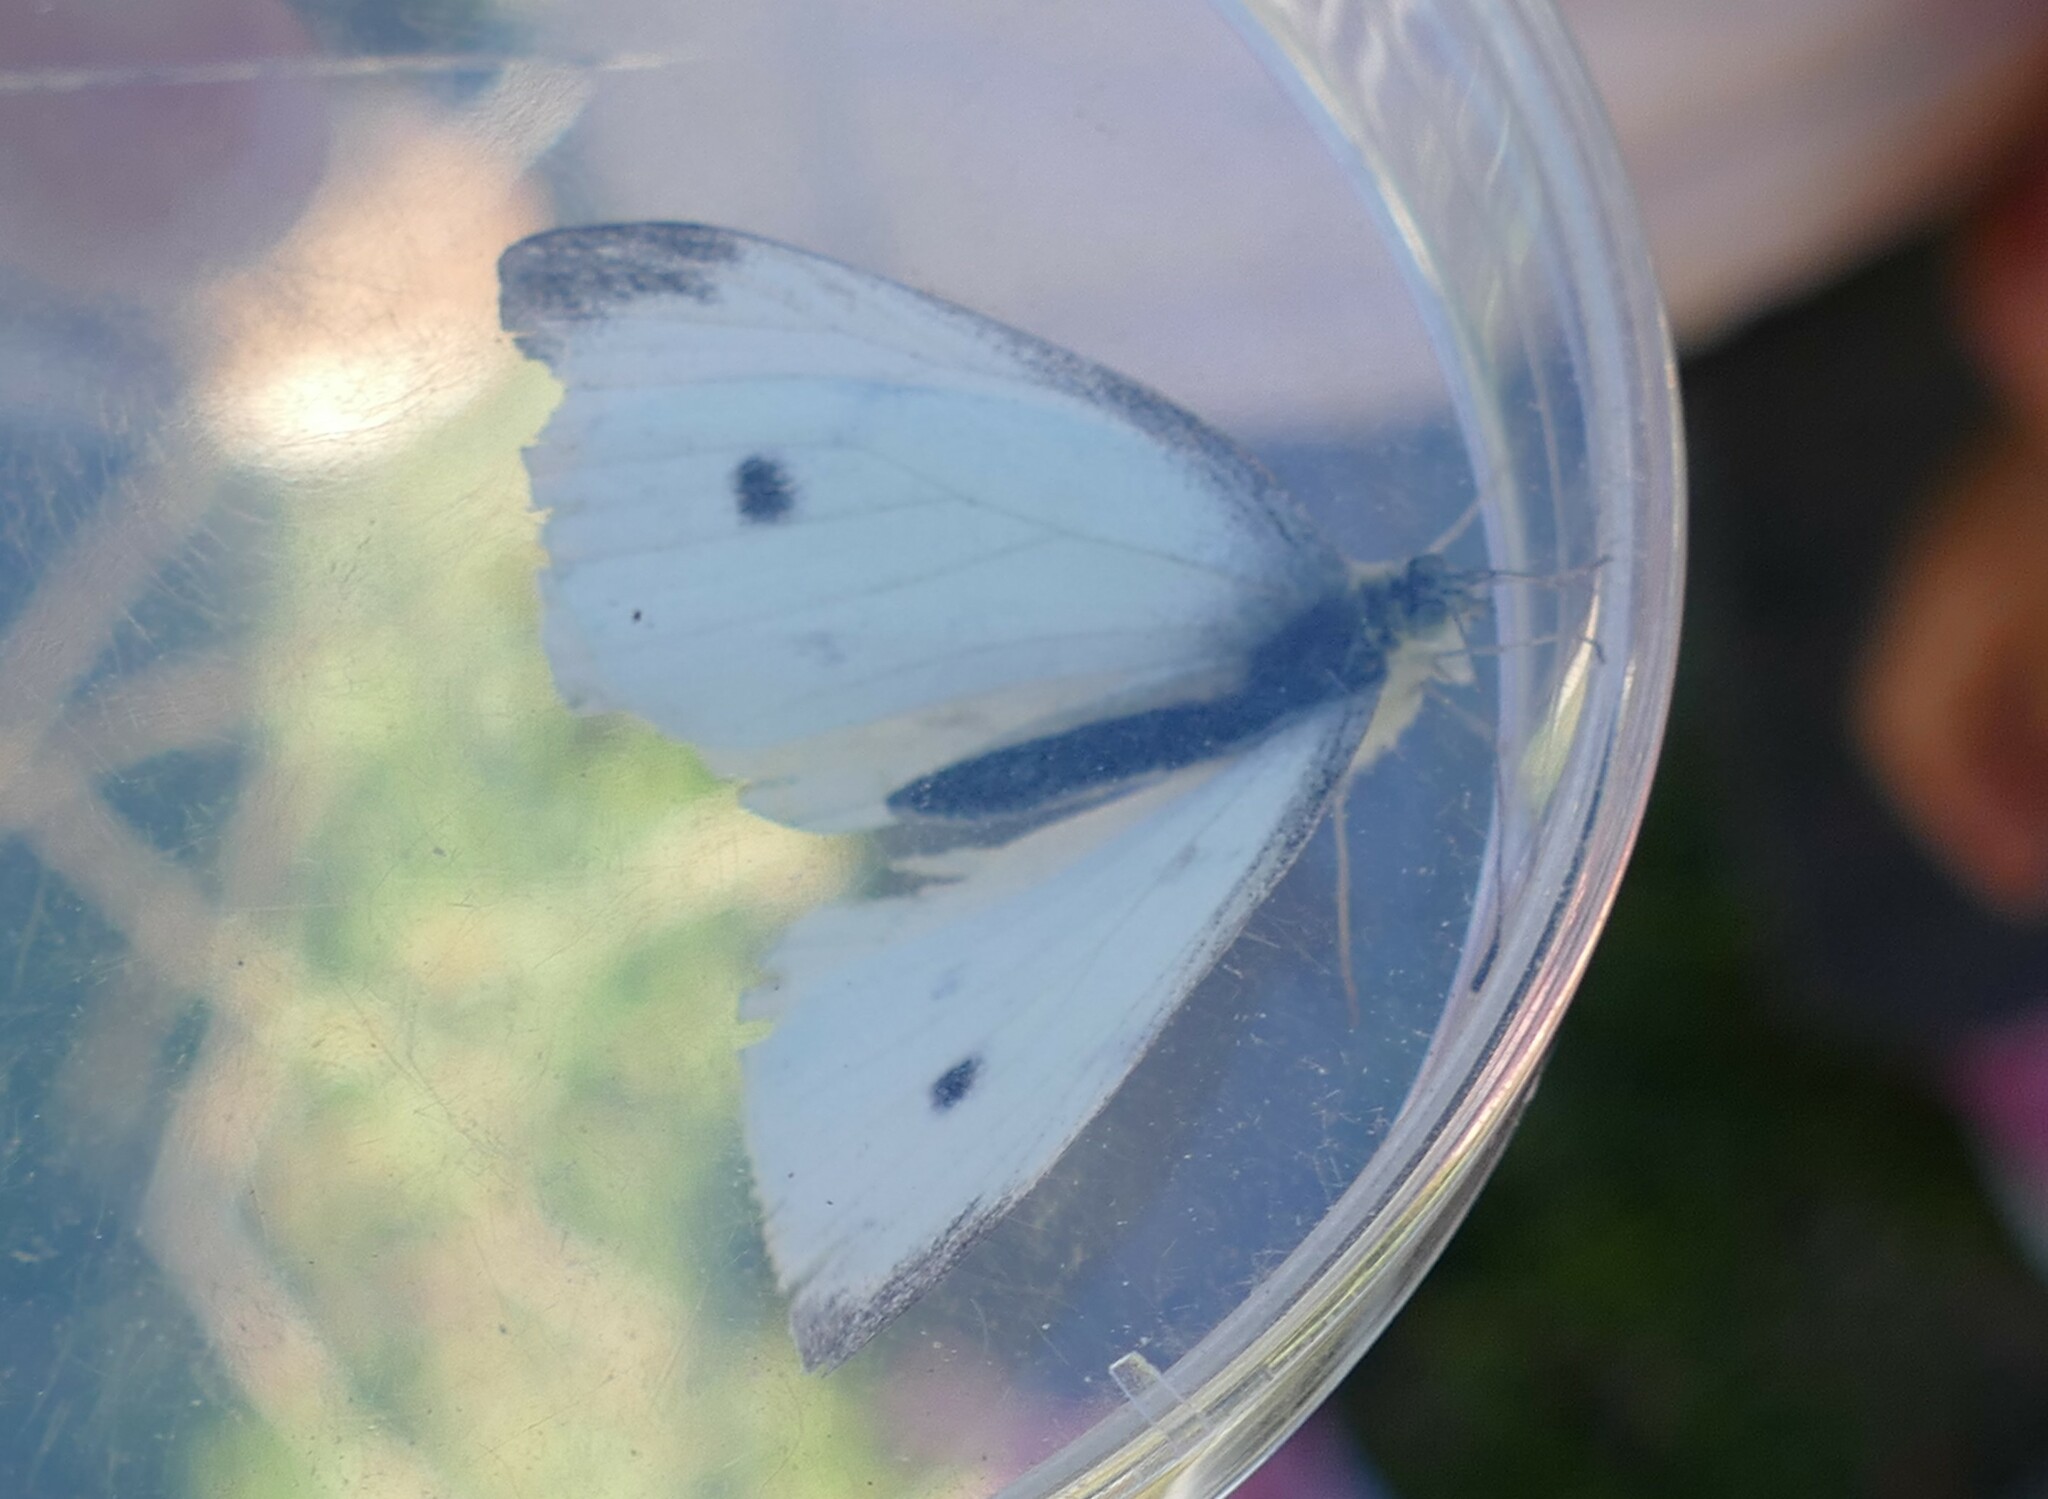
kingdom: Animalia
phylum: Arthropoda
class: Insecta
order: Lepidoptera
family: Pieridae
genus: Pieris
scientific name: Pieris rapae
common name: Small white
